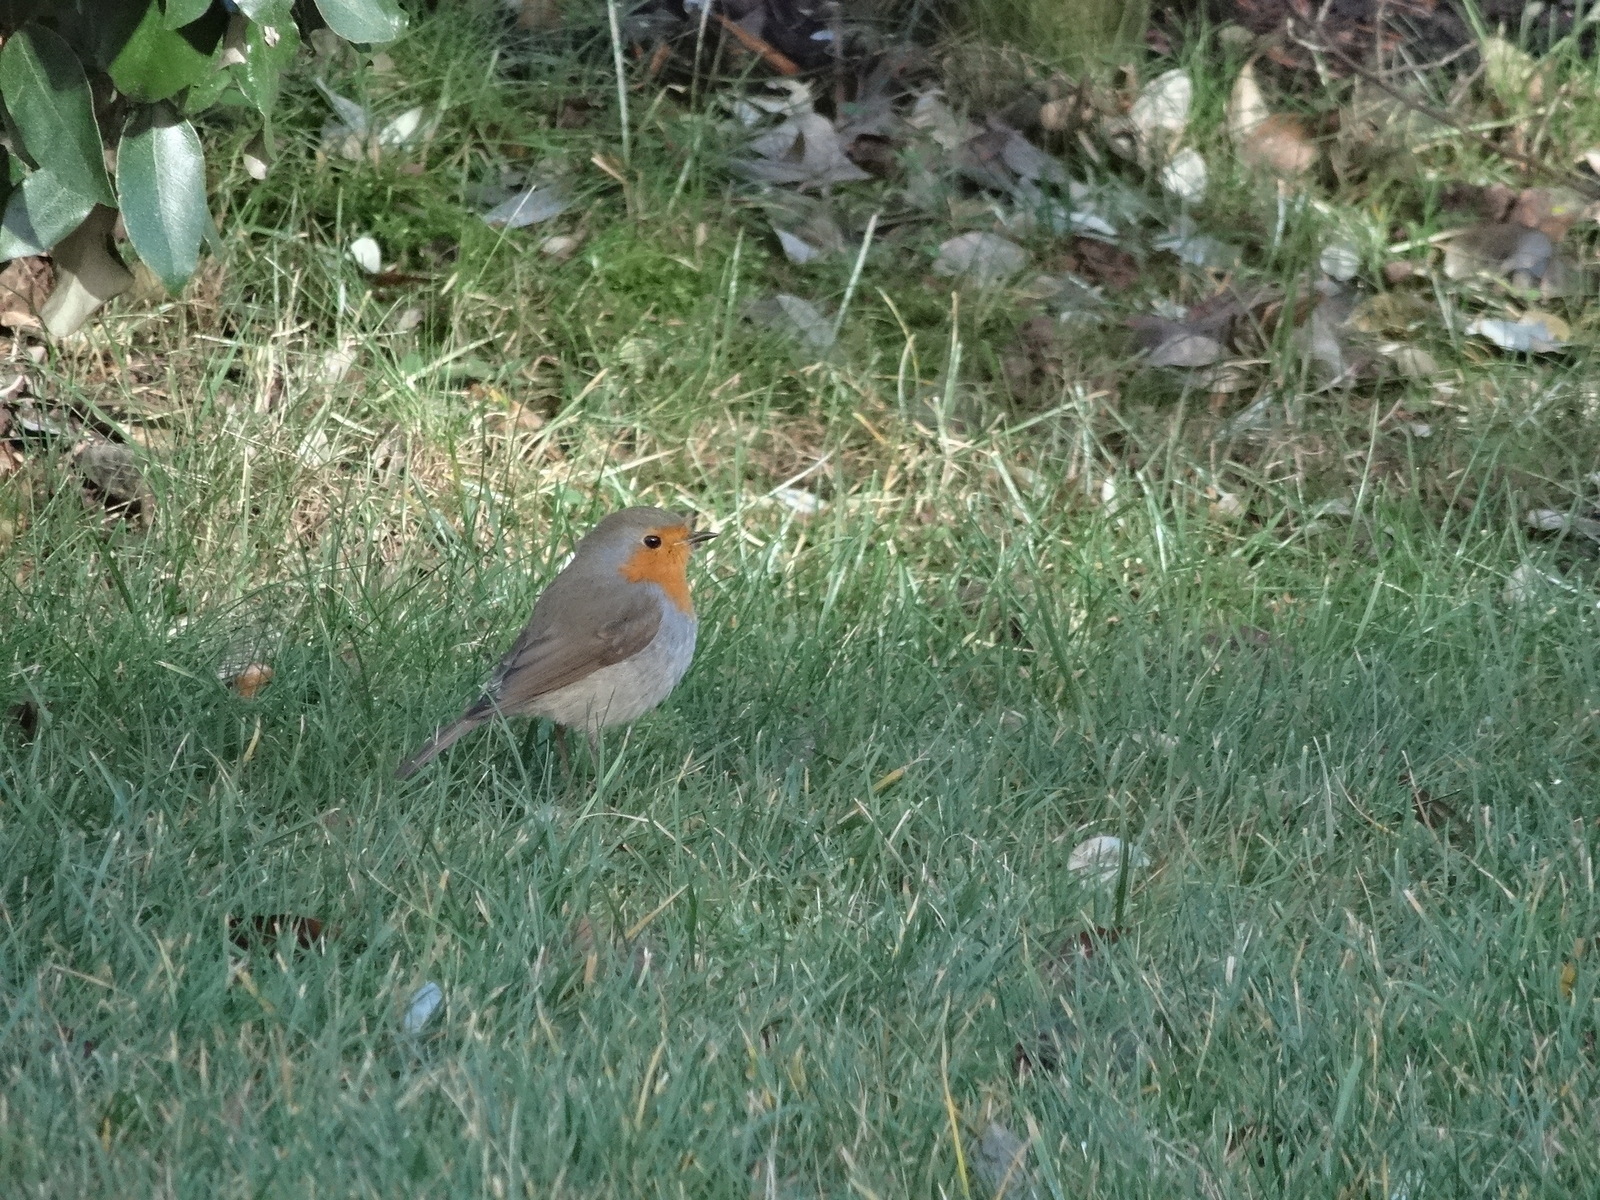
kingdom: Animalia
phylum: Chordata
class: Aves
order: Passeriformes
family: Muscicapidae
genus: Erithacus
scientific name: Erithacus rubecula
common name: European robin
